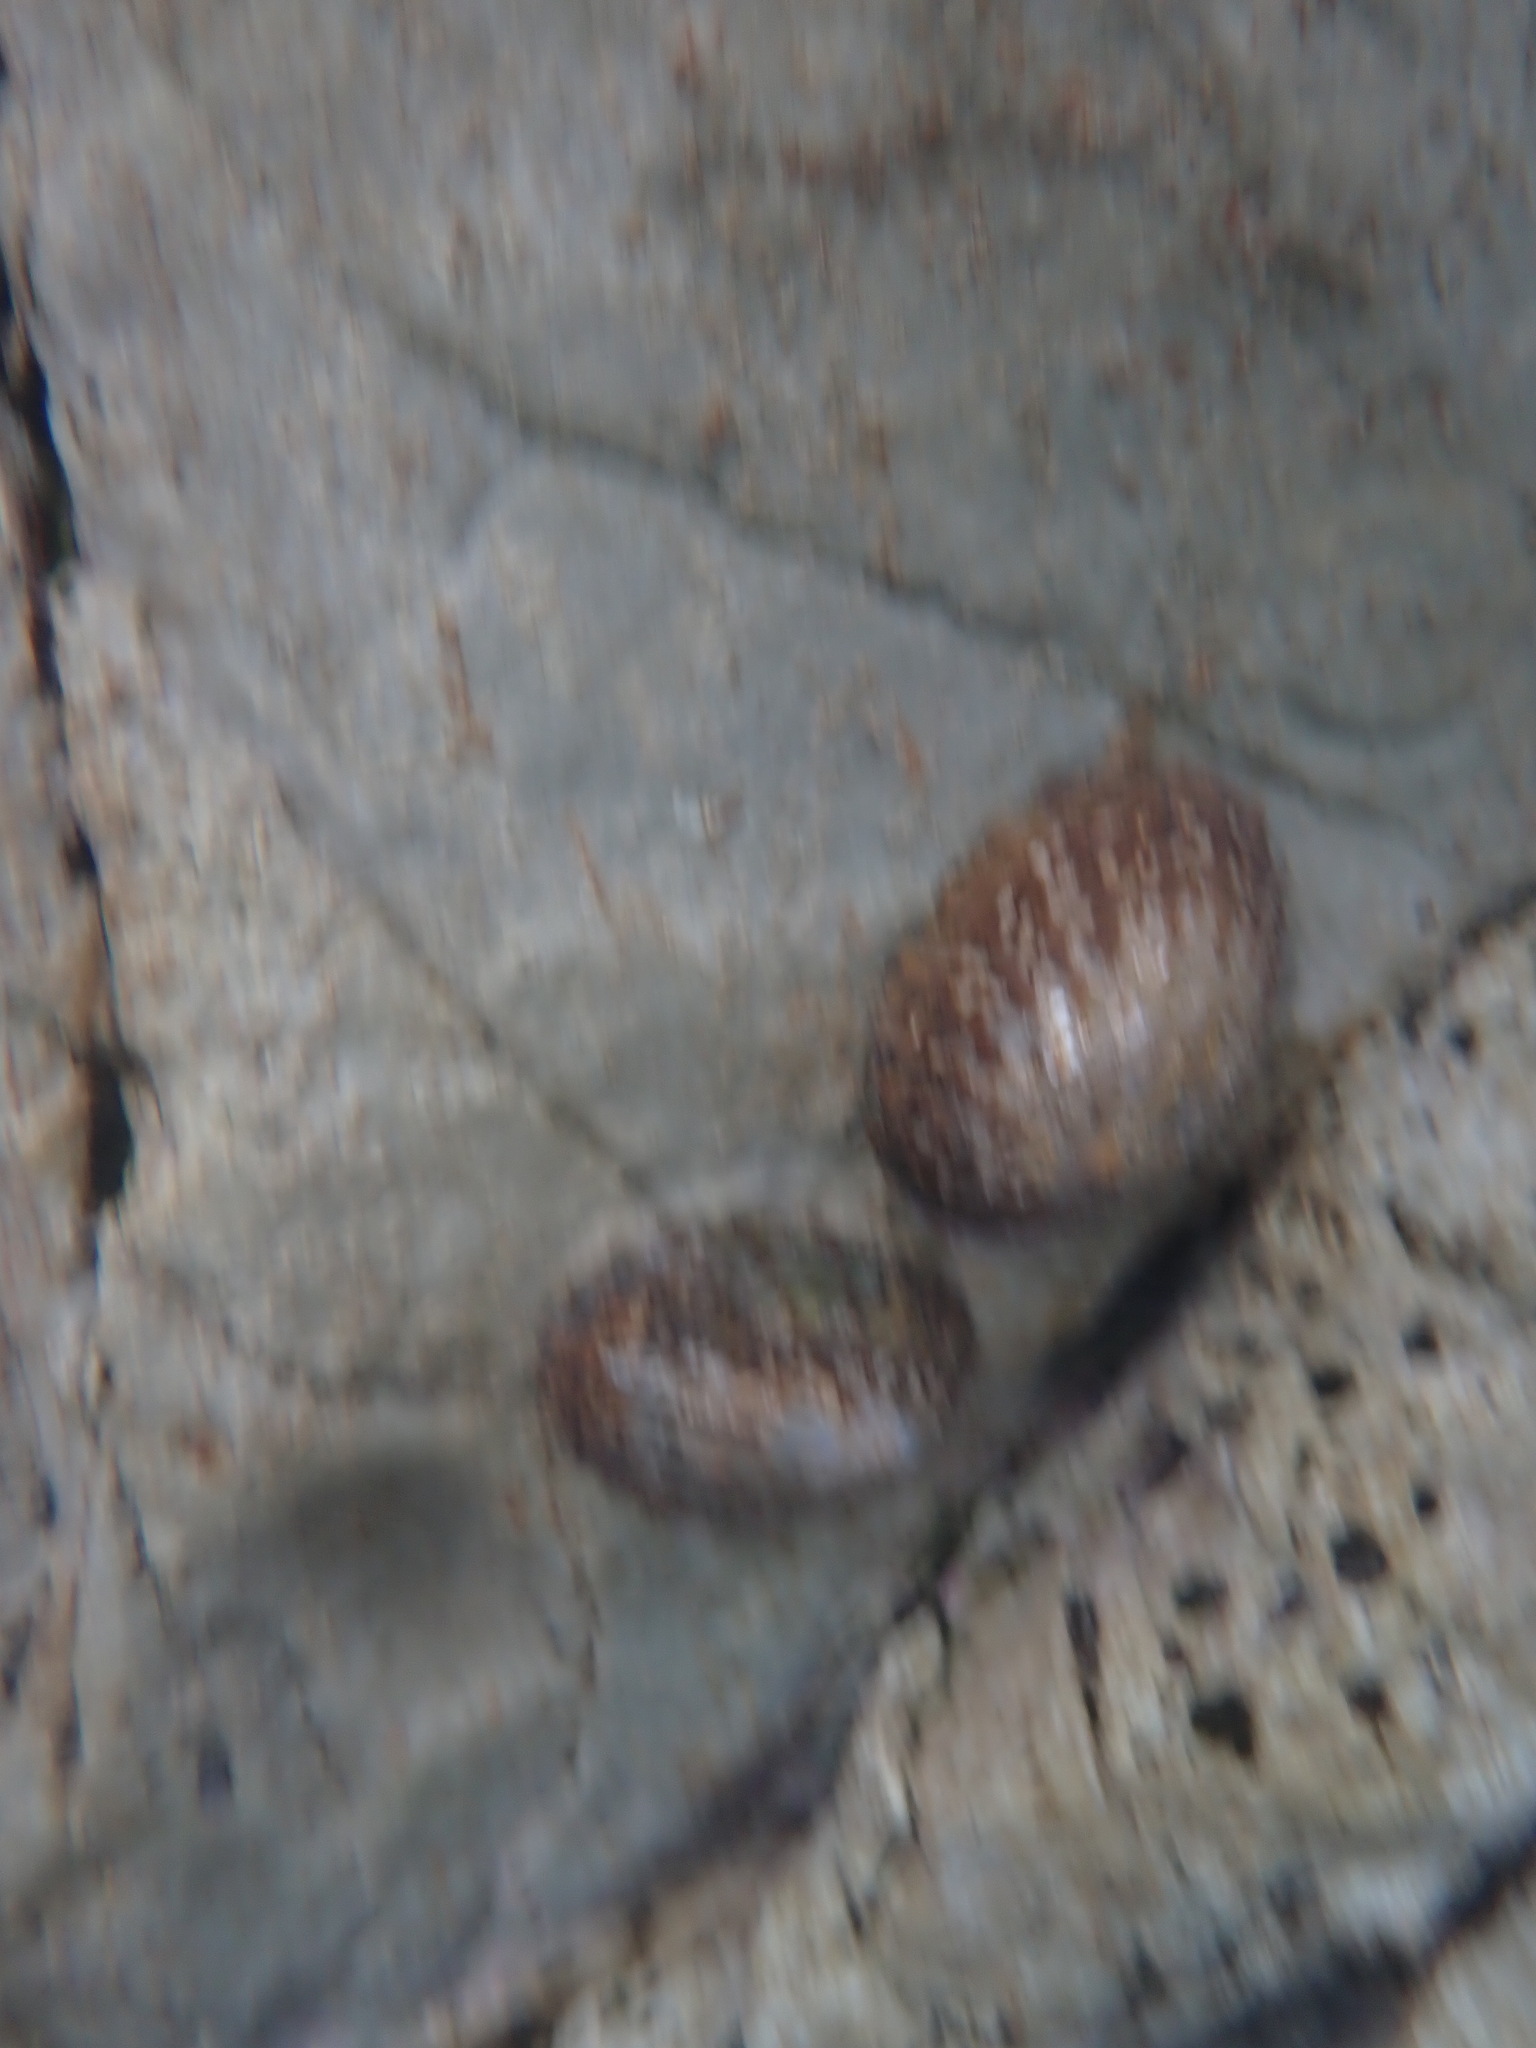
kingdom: Animalia
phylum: Mollusca
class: Gastropoda
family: Nacellidae
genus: Cellana
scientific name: Cellana denticulata
